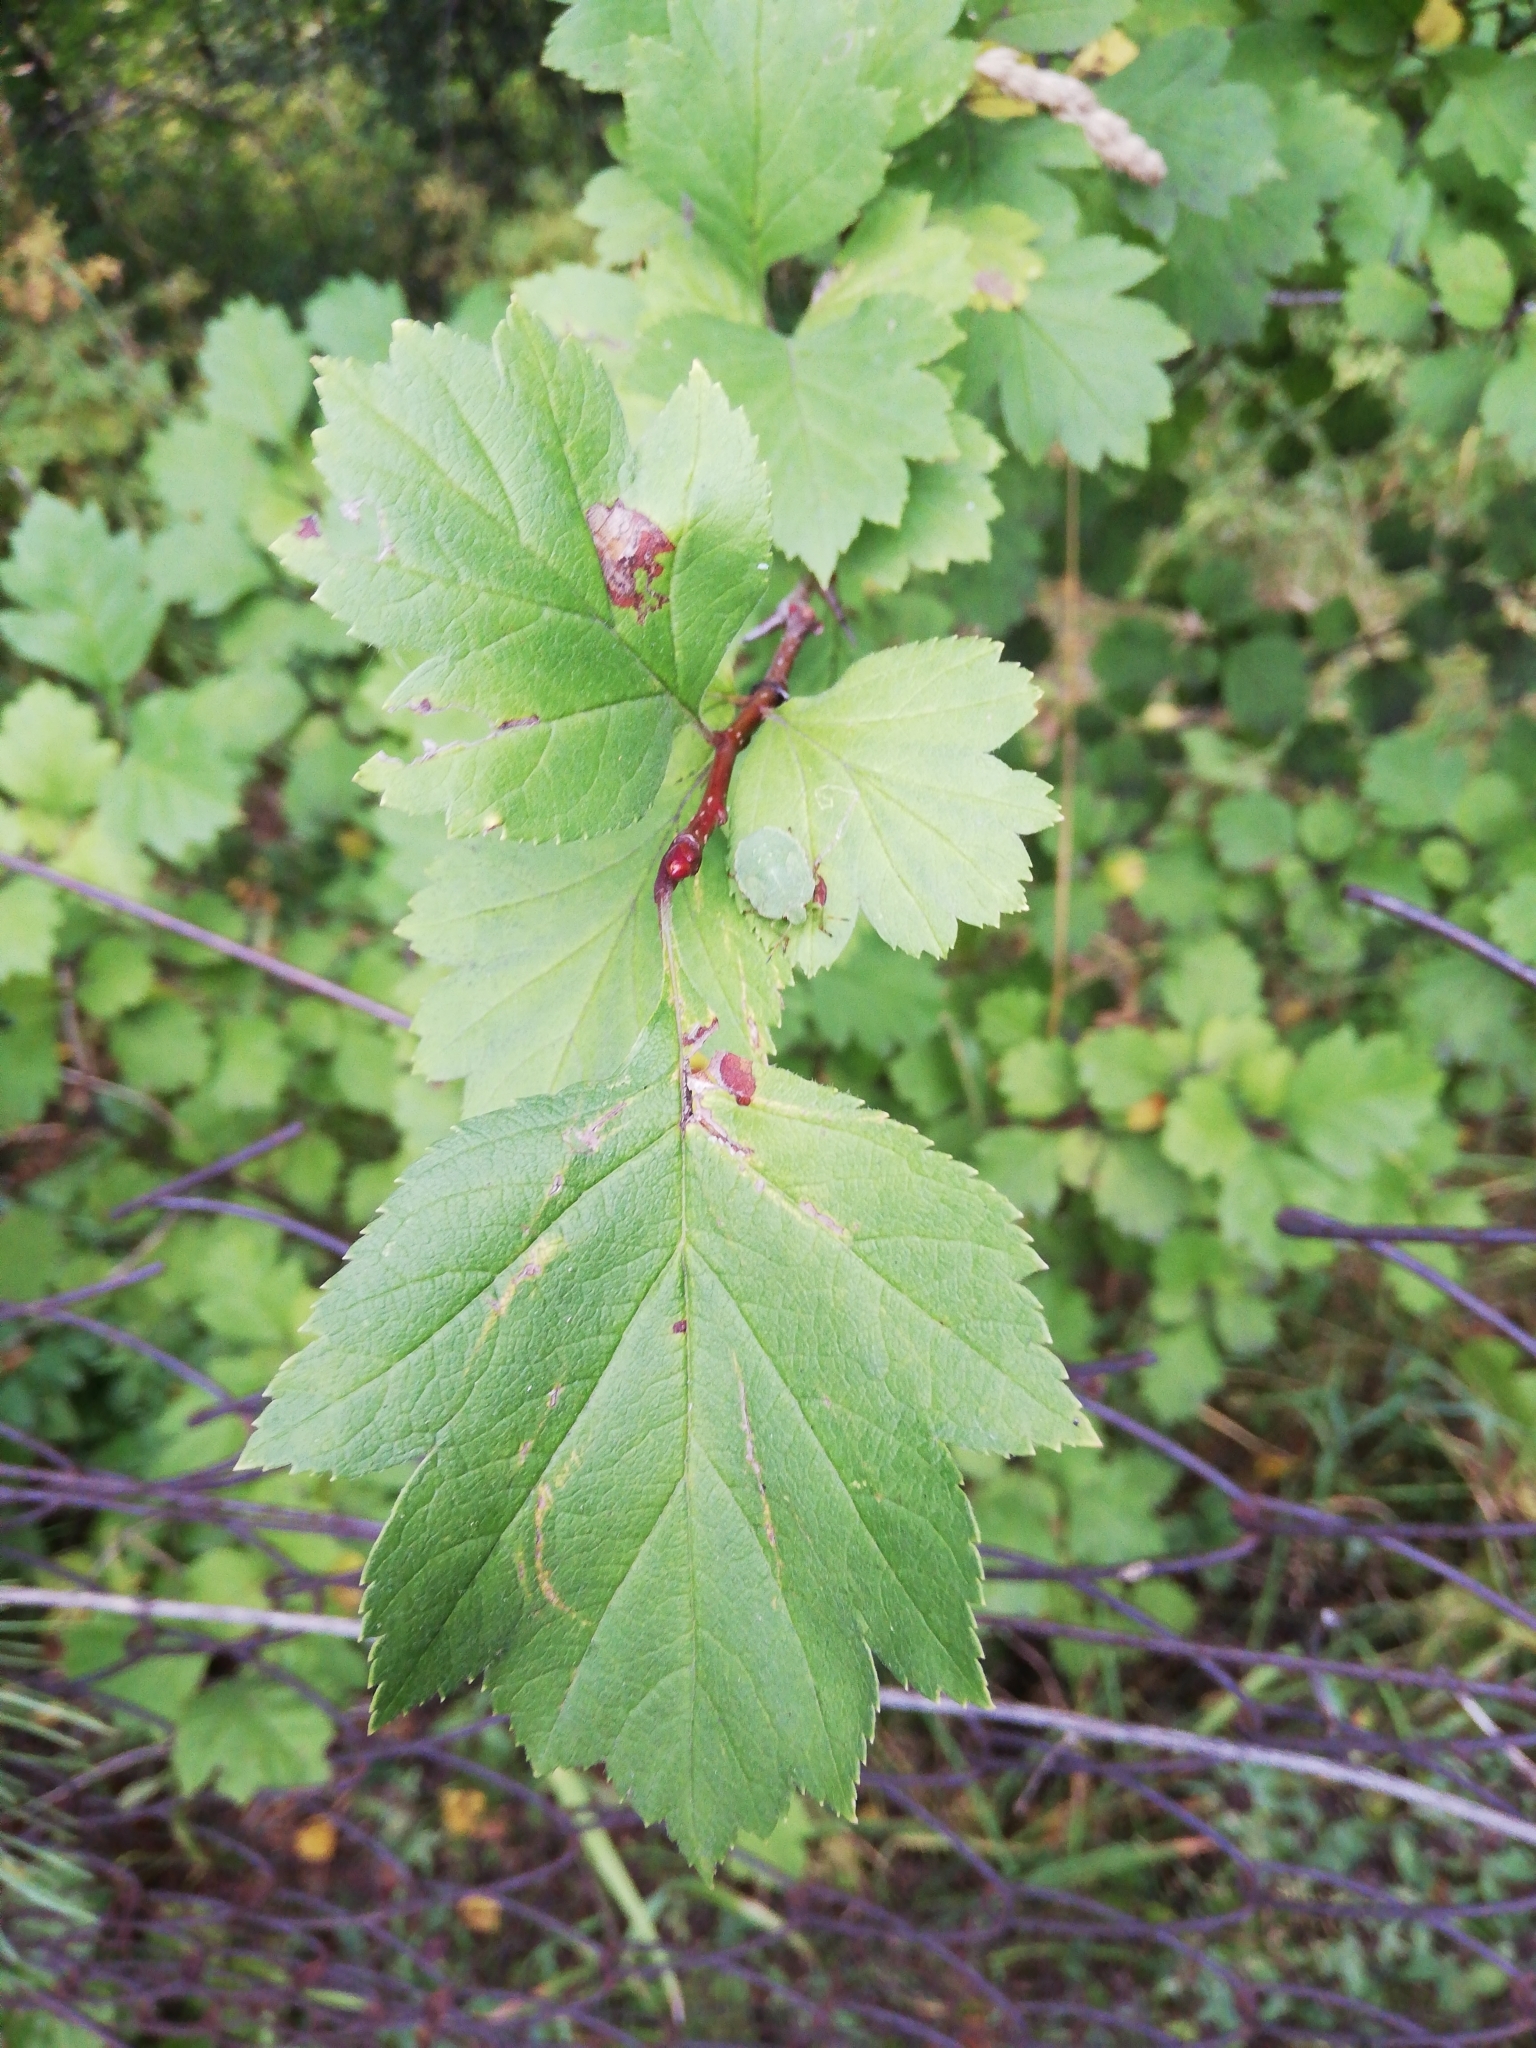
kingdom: Plantae
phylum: Tracheophyta
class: Magnoliopsida
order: Rosales
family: Rosaceae
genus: Crataegus
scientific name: Crataegus sanguinea
